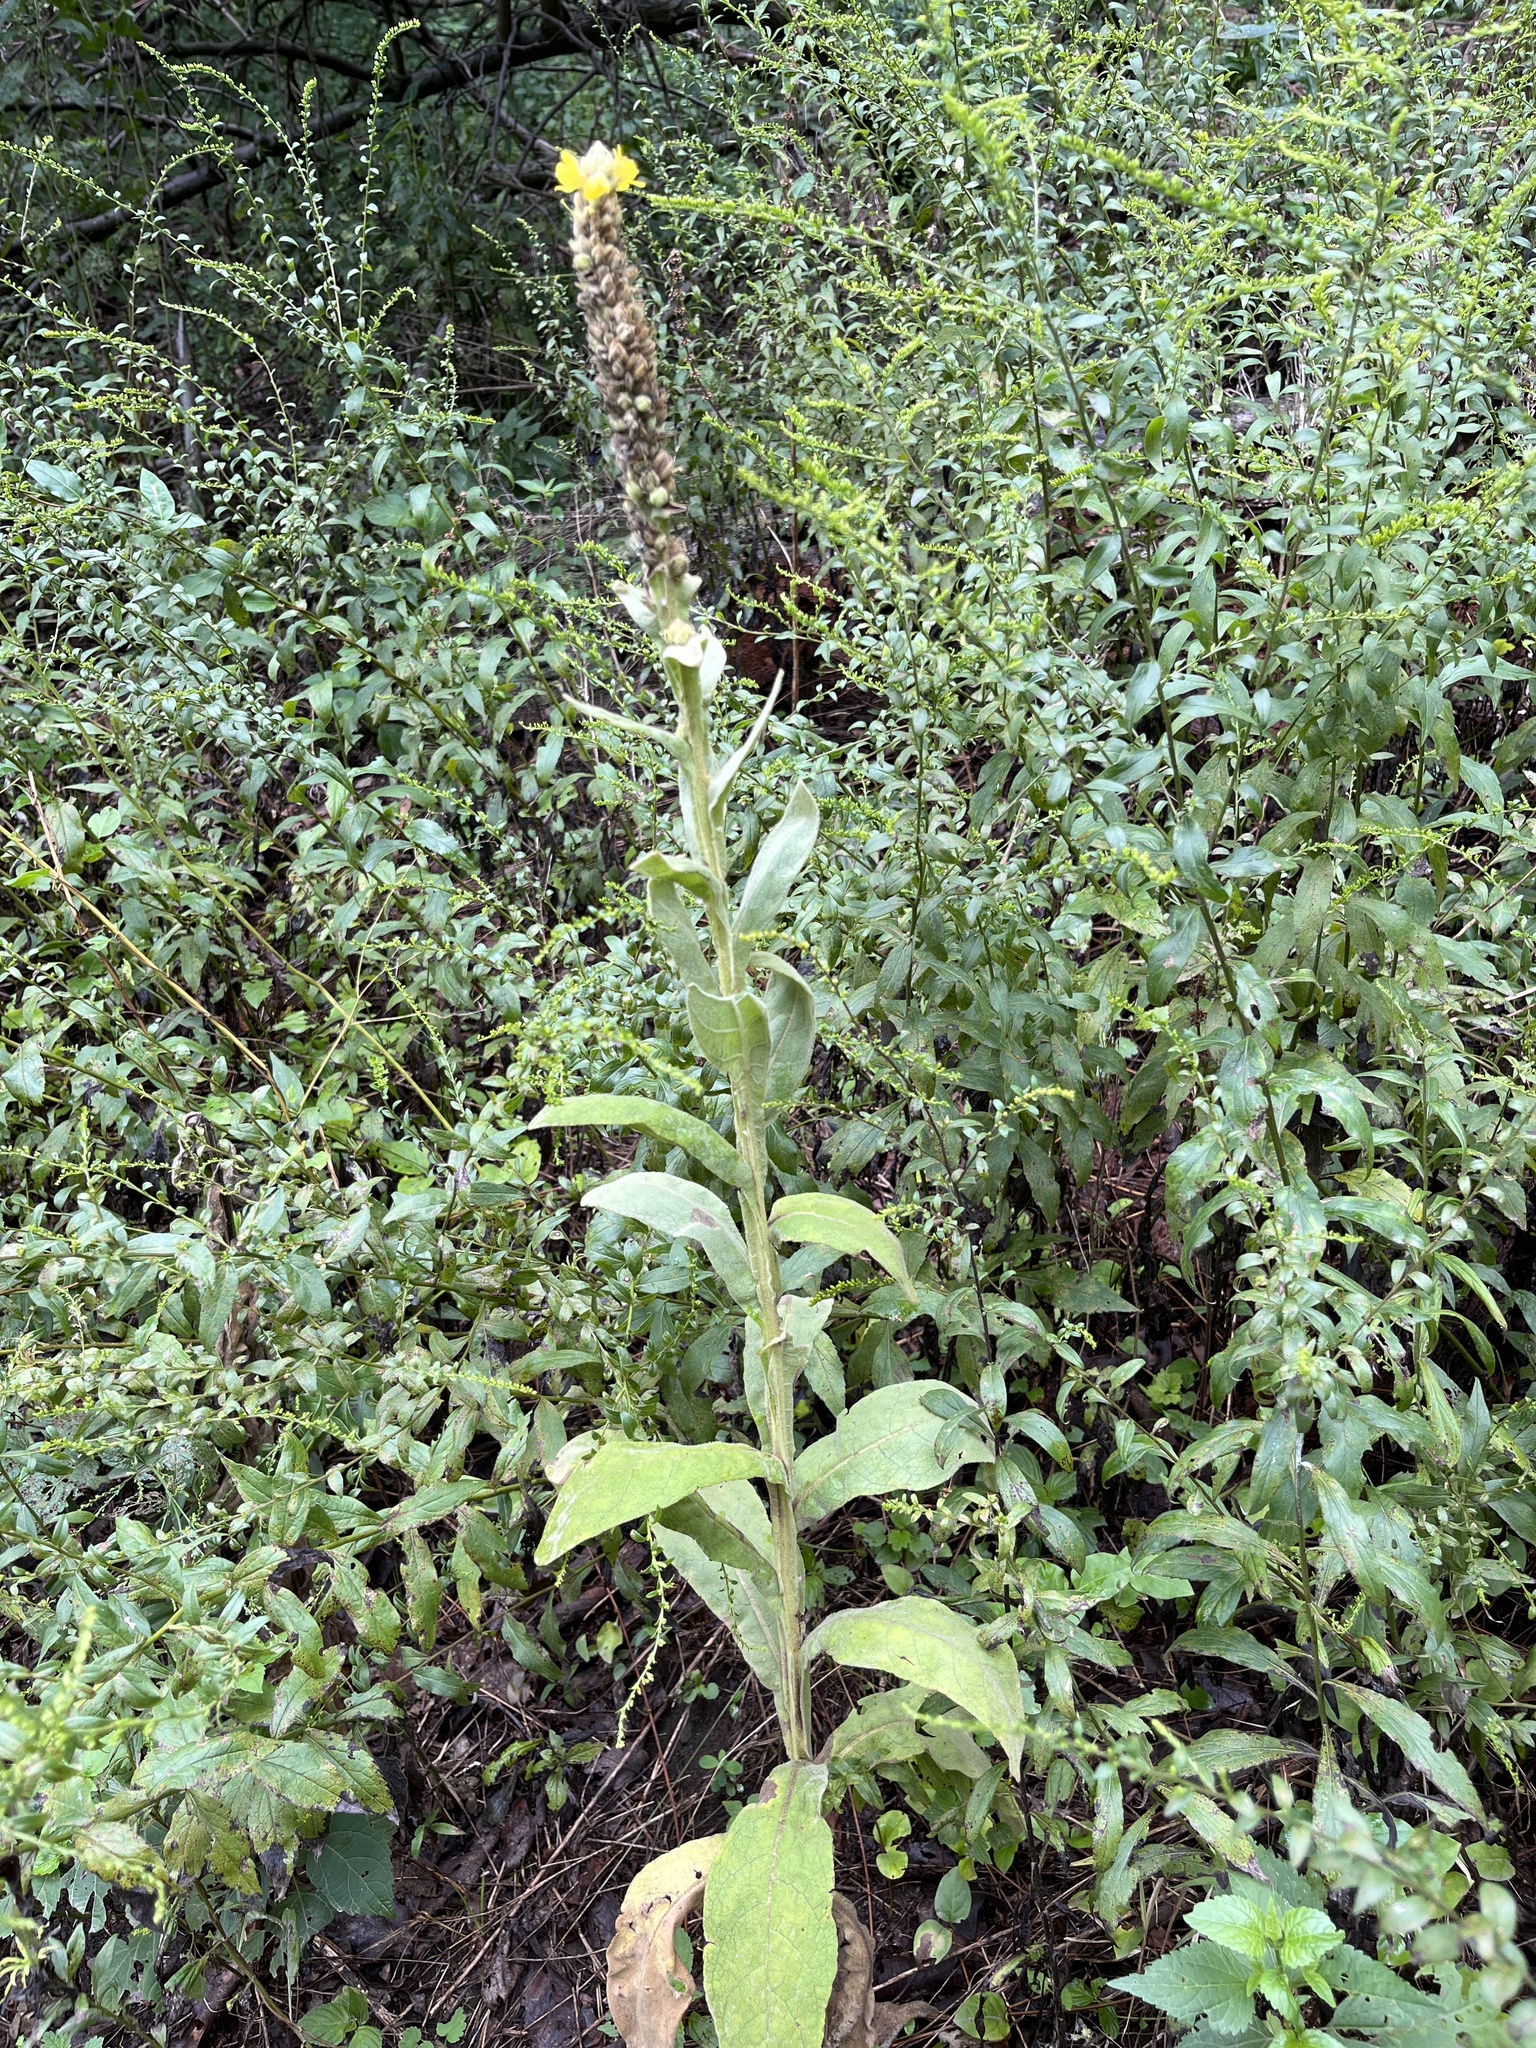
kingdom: Plantae
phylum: Tracheophyta
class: Magnoliopsida
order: Lamiales
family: Scrophulariaceae
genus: Verbascum
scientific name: Verbascum thapsus
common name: Common mullein
